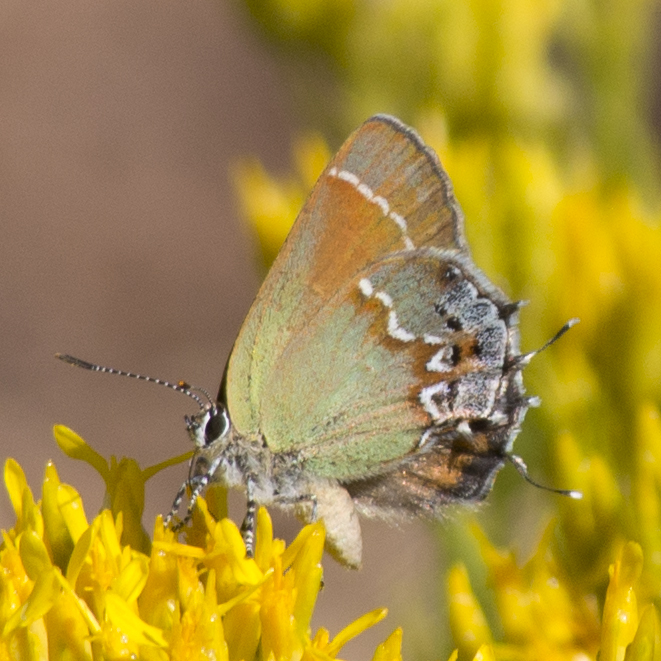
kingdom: Animalia
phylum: Arthropoda
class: Insecta
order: Lepidoptera
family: Lycaenidae
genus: Mitoura
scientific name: Mitoura siva
